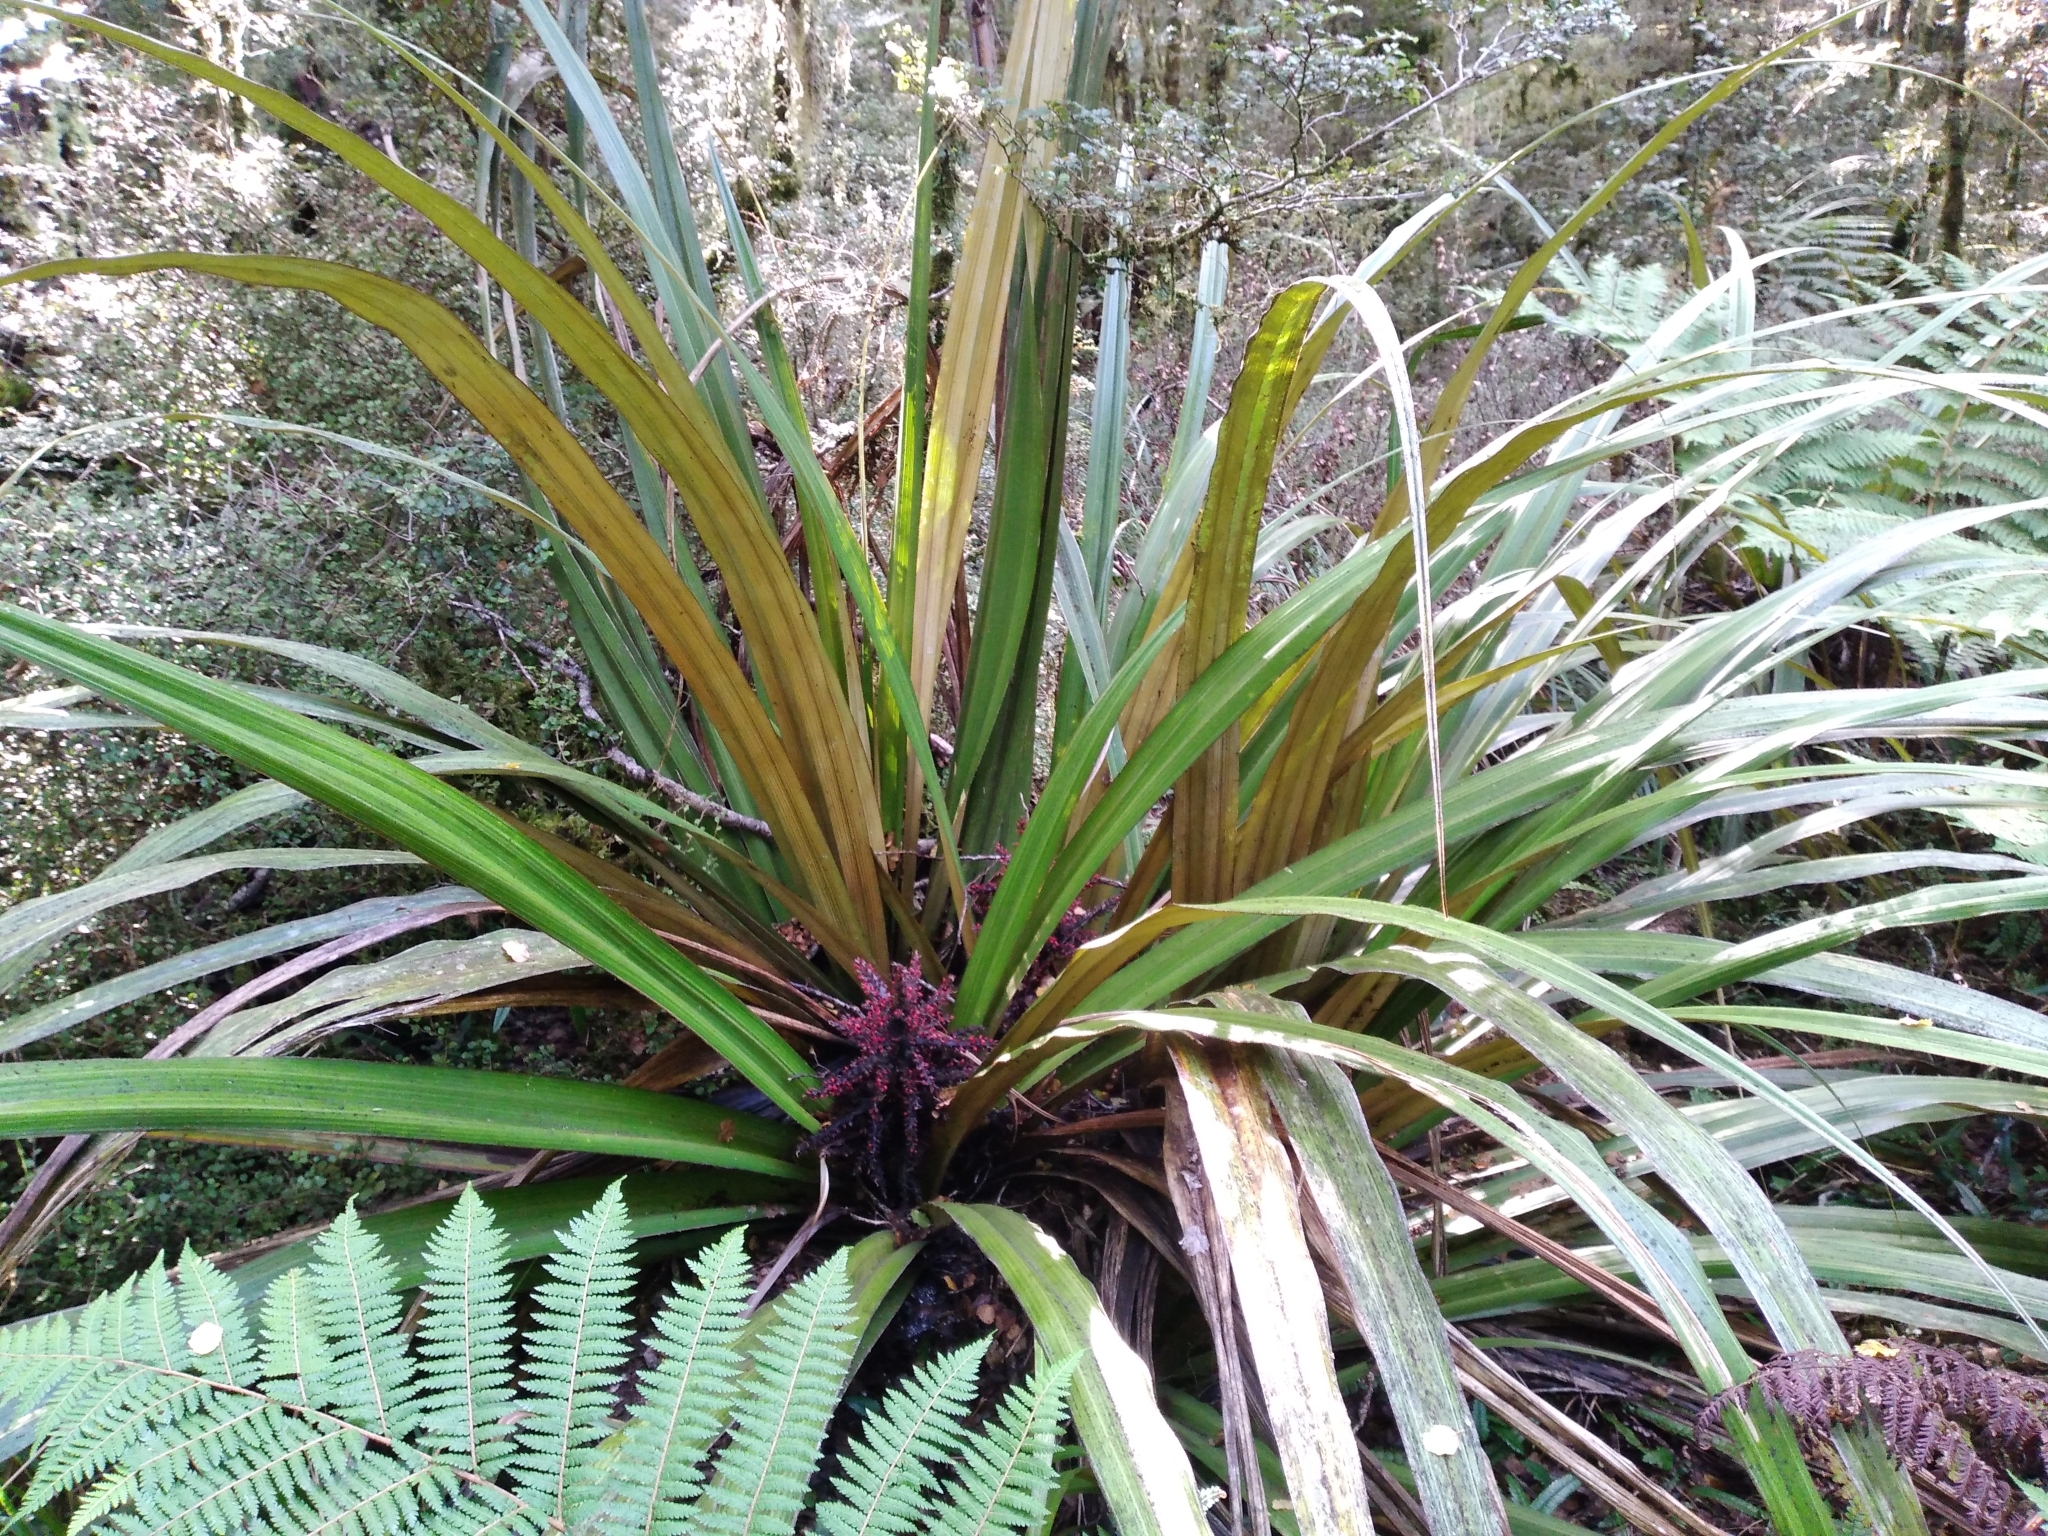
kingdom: Plantae
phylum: Tracheophyta
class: Liliopsida
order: Asparagales
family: Asteliaceae
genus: Astelia
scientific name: Astelia nivicola
